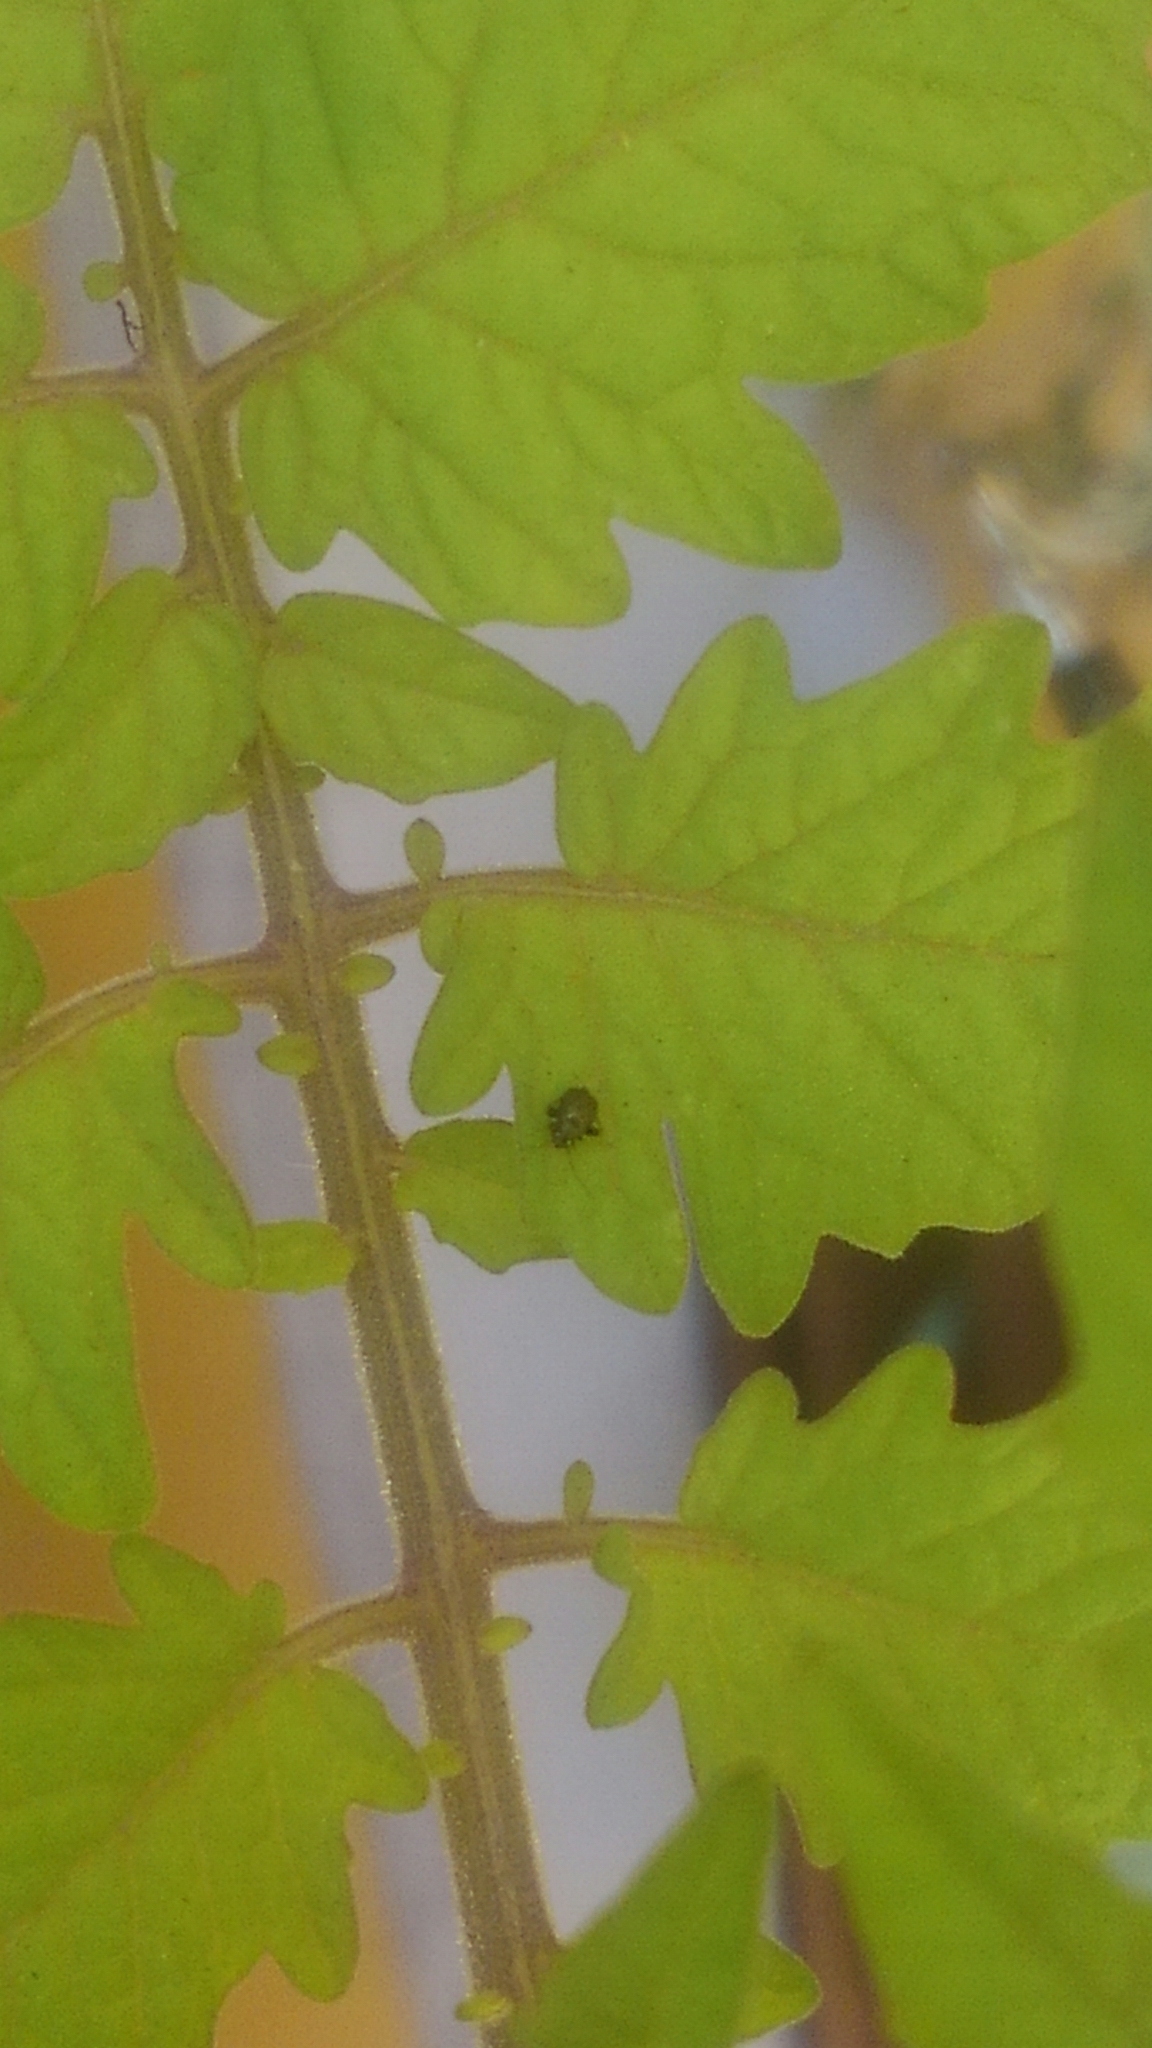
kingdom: Animalia
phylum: Arthropoda
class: Insecta
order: Hemiptera
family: Miridae
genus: Microtechnites
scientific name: Microtechnites bractatus
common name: Garden fleahopper
